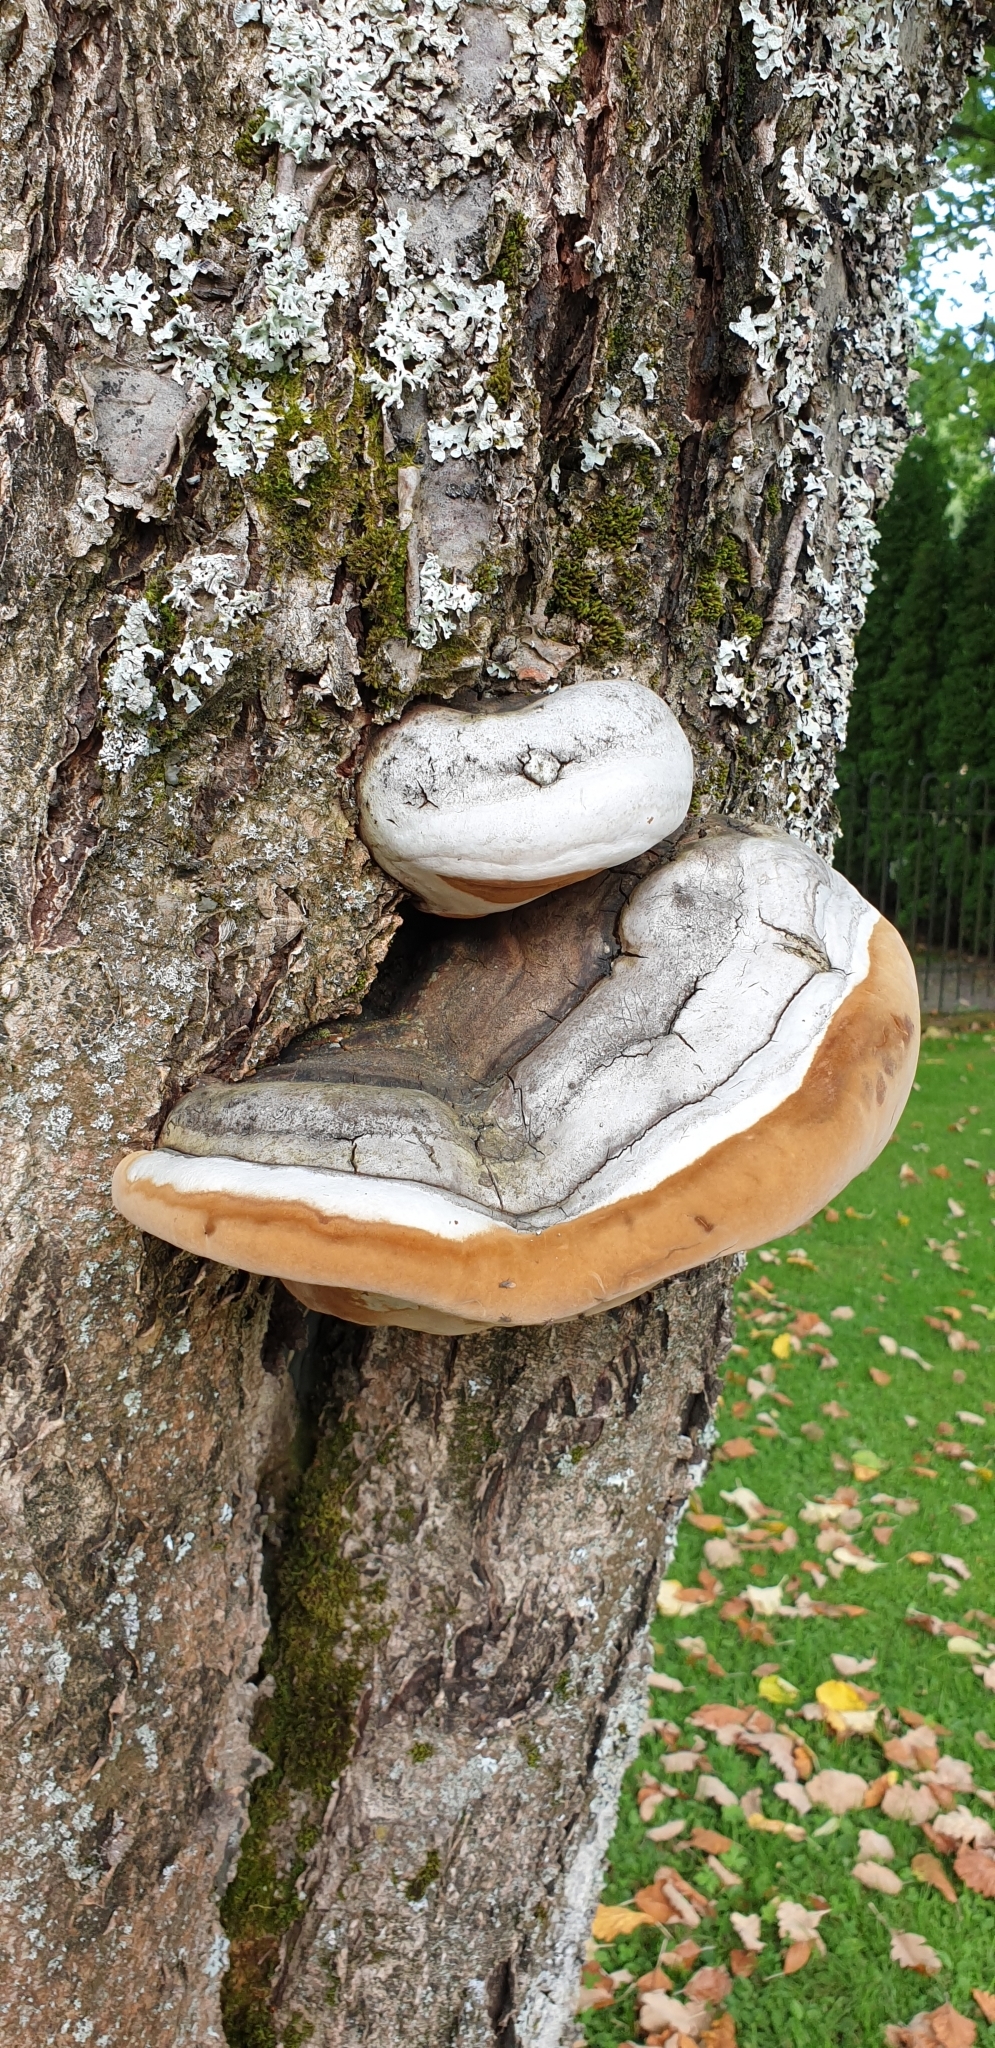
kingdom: Fungi
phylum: Basidiomycota
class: Agaricomycetes
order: Hymenochaetales
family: Hymenochaetaceae
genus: Phellinus
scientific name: Phellinus igniarius
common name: Willow bracket
